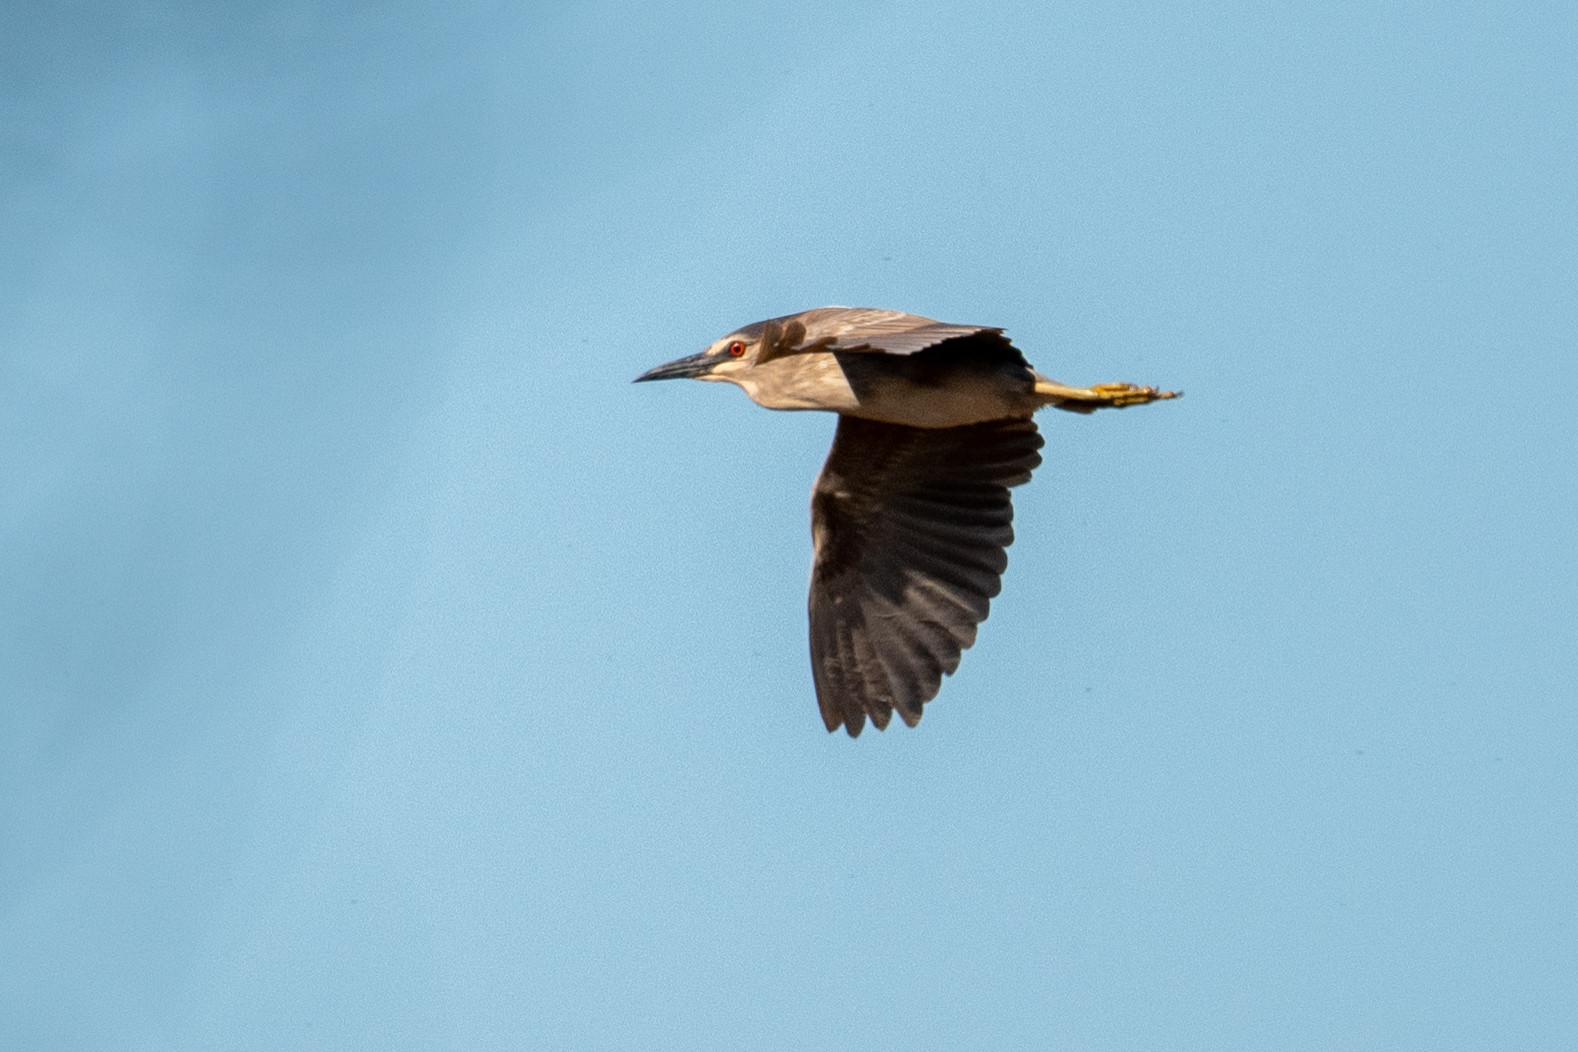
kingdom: Animalia
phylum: Chordata
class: Aves
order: Pelecaniformes
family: Ardeidae
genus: Nycticorax
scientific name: Nycticorax nycticorax
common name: Black-crowned night heron
